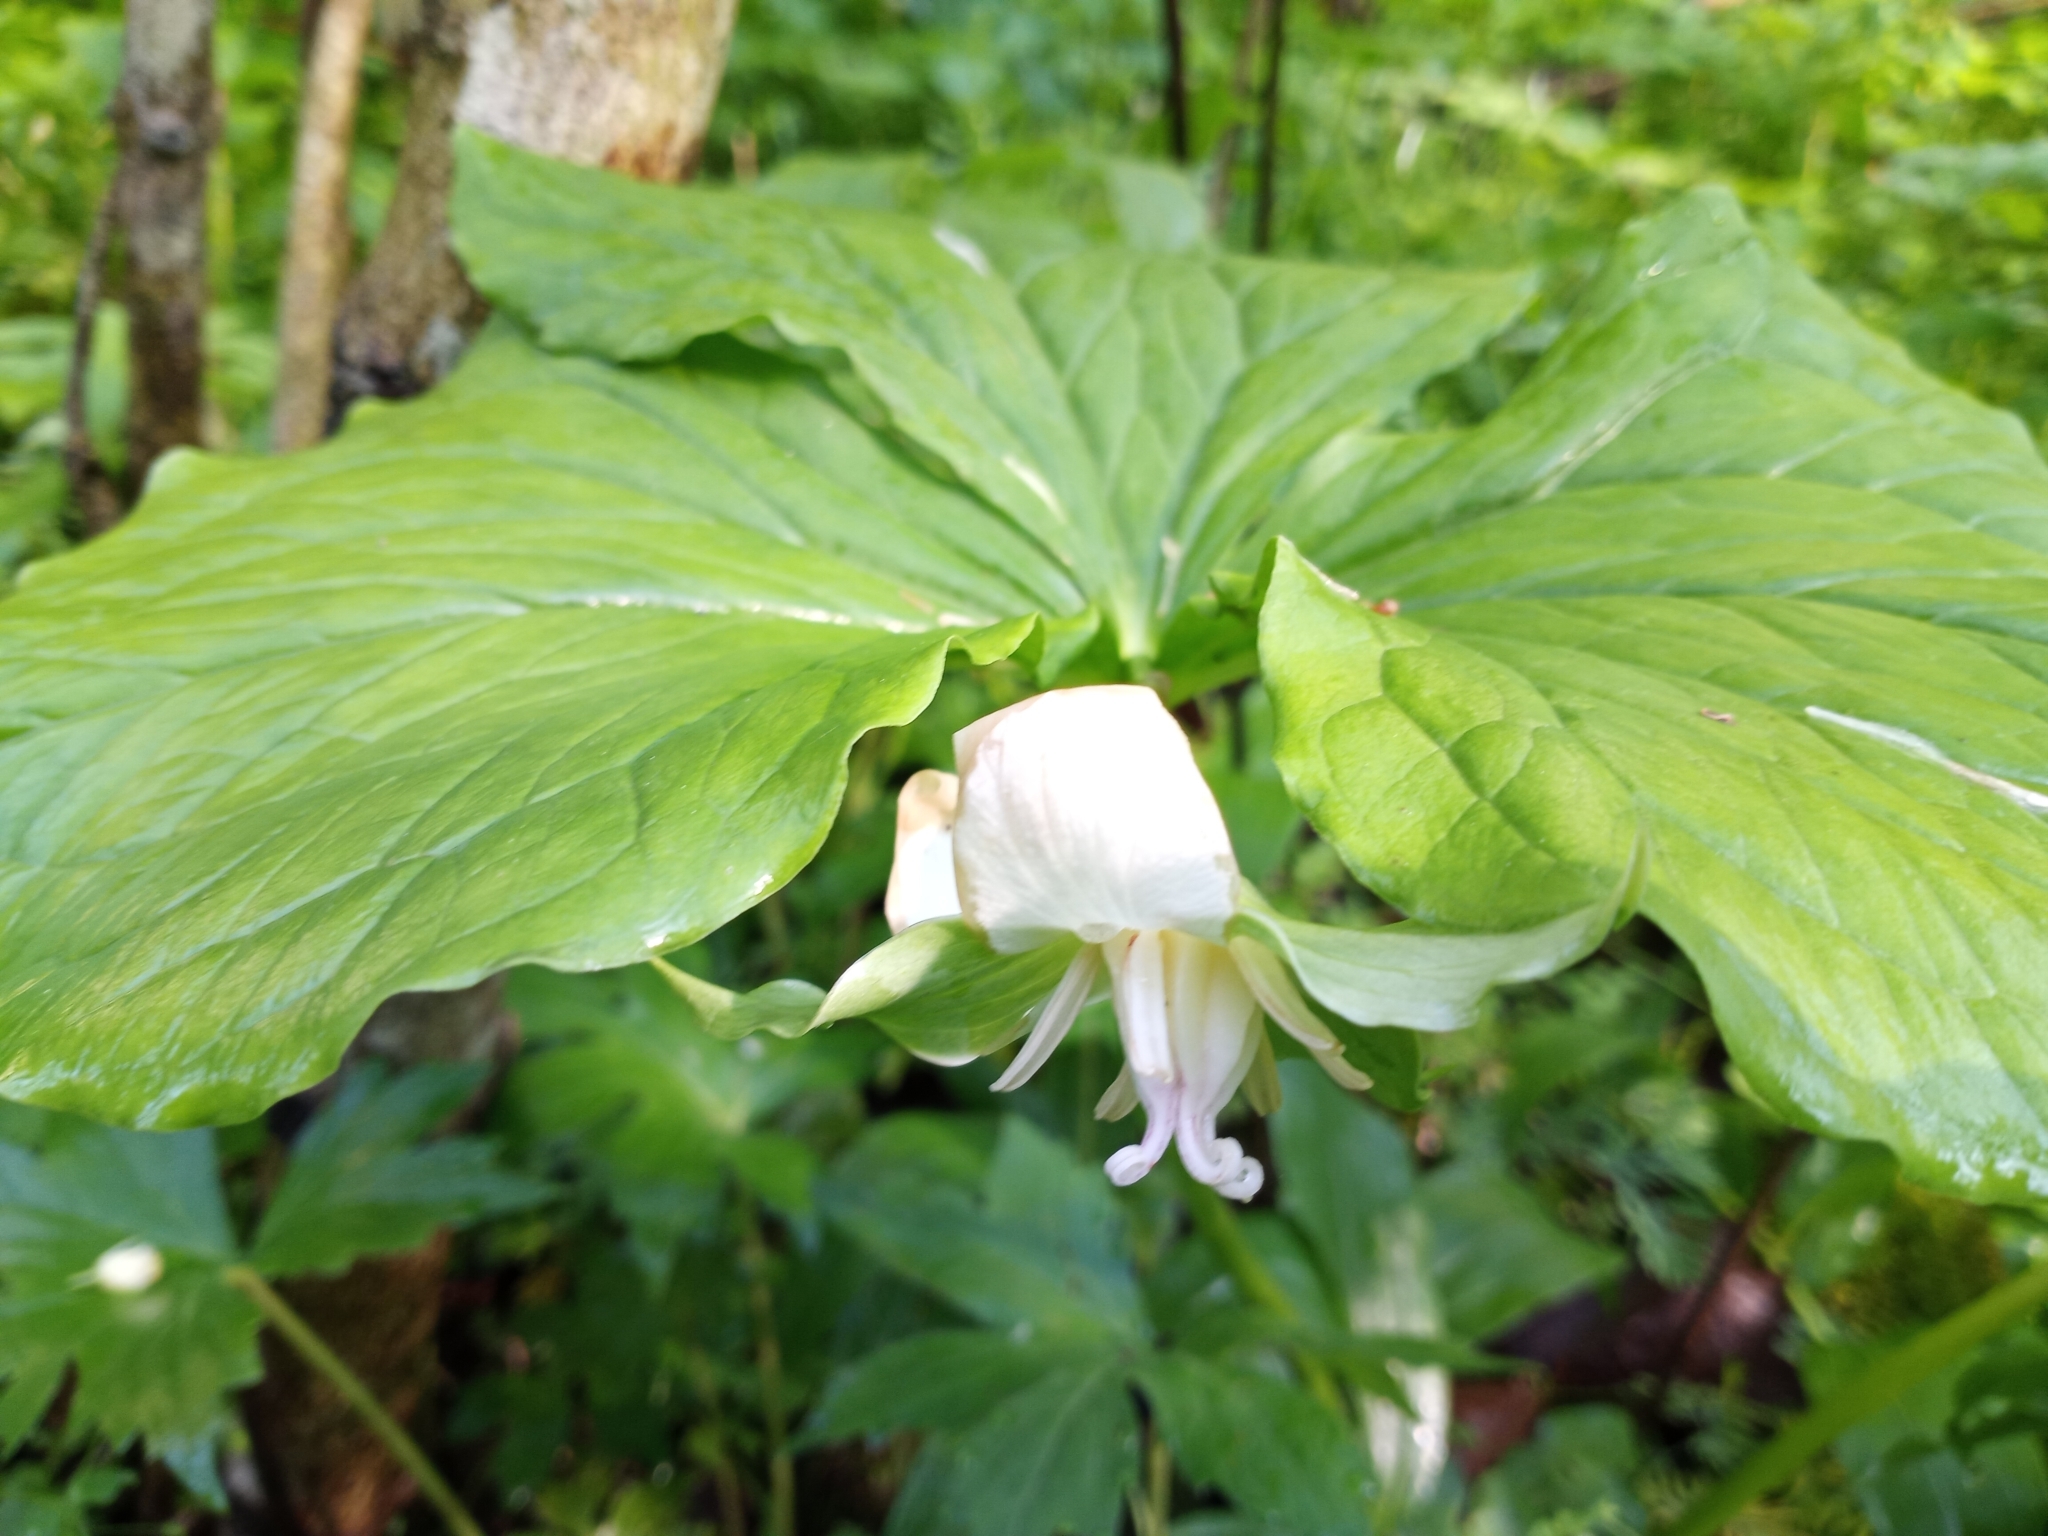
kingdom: Plantae
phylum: Tracheophyta
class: Liliopsida
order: Liliales
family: Melanthiaceae
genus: Trillium
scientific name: Trillium flexipes
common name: Drooping trillium
